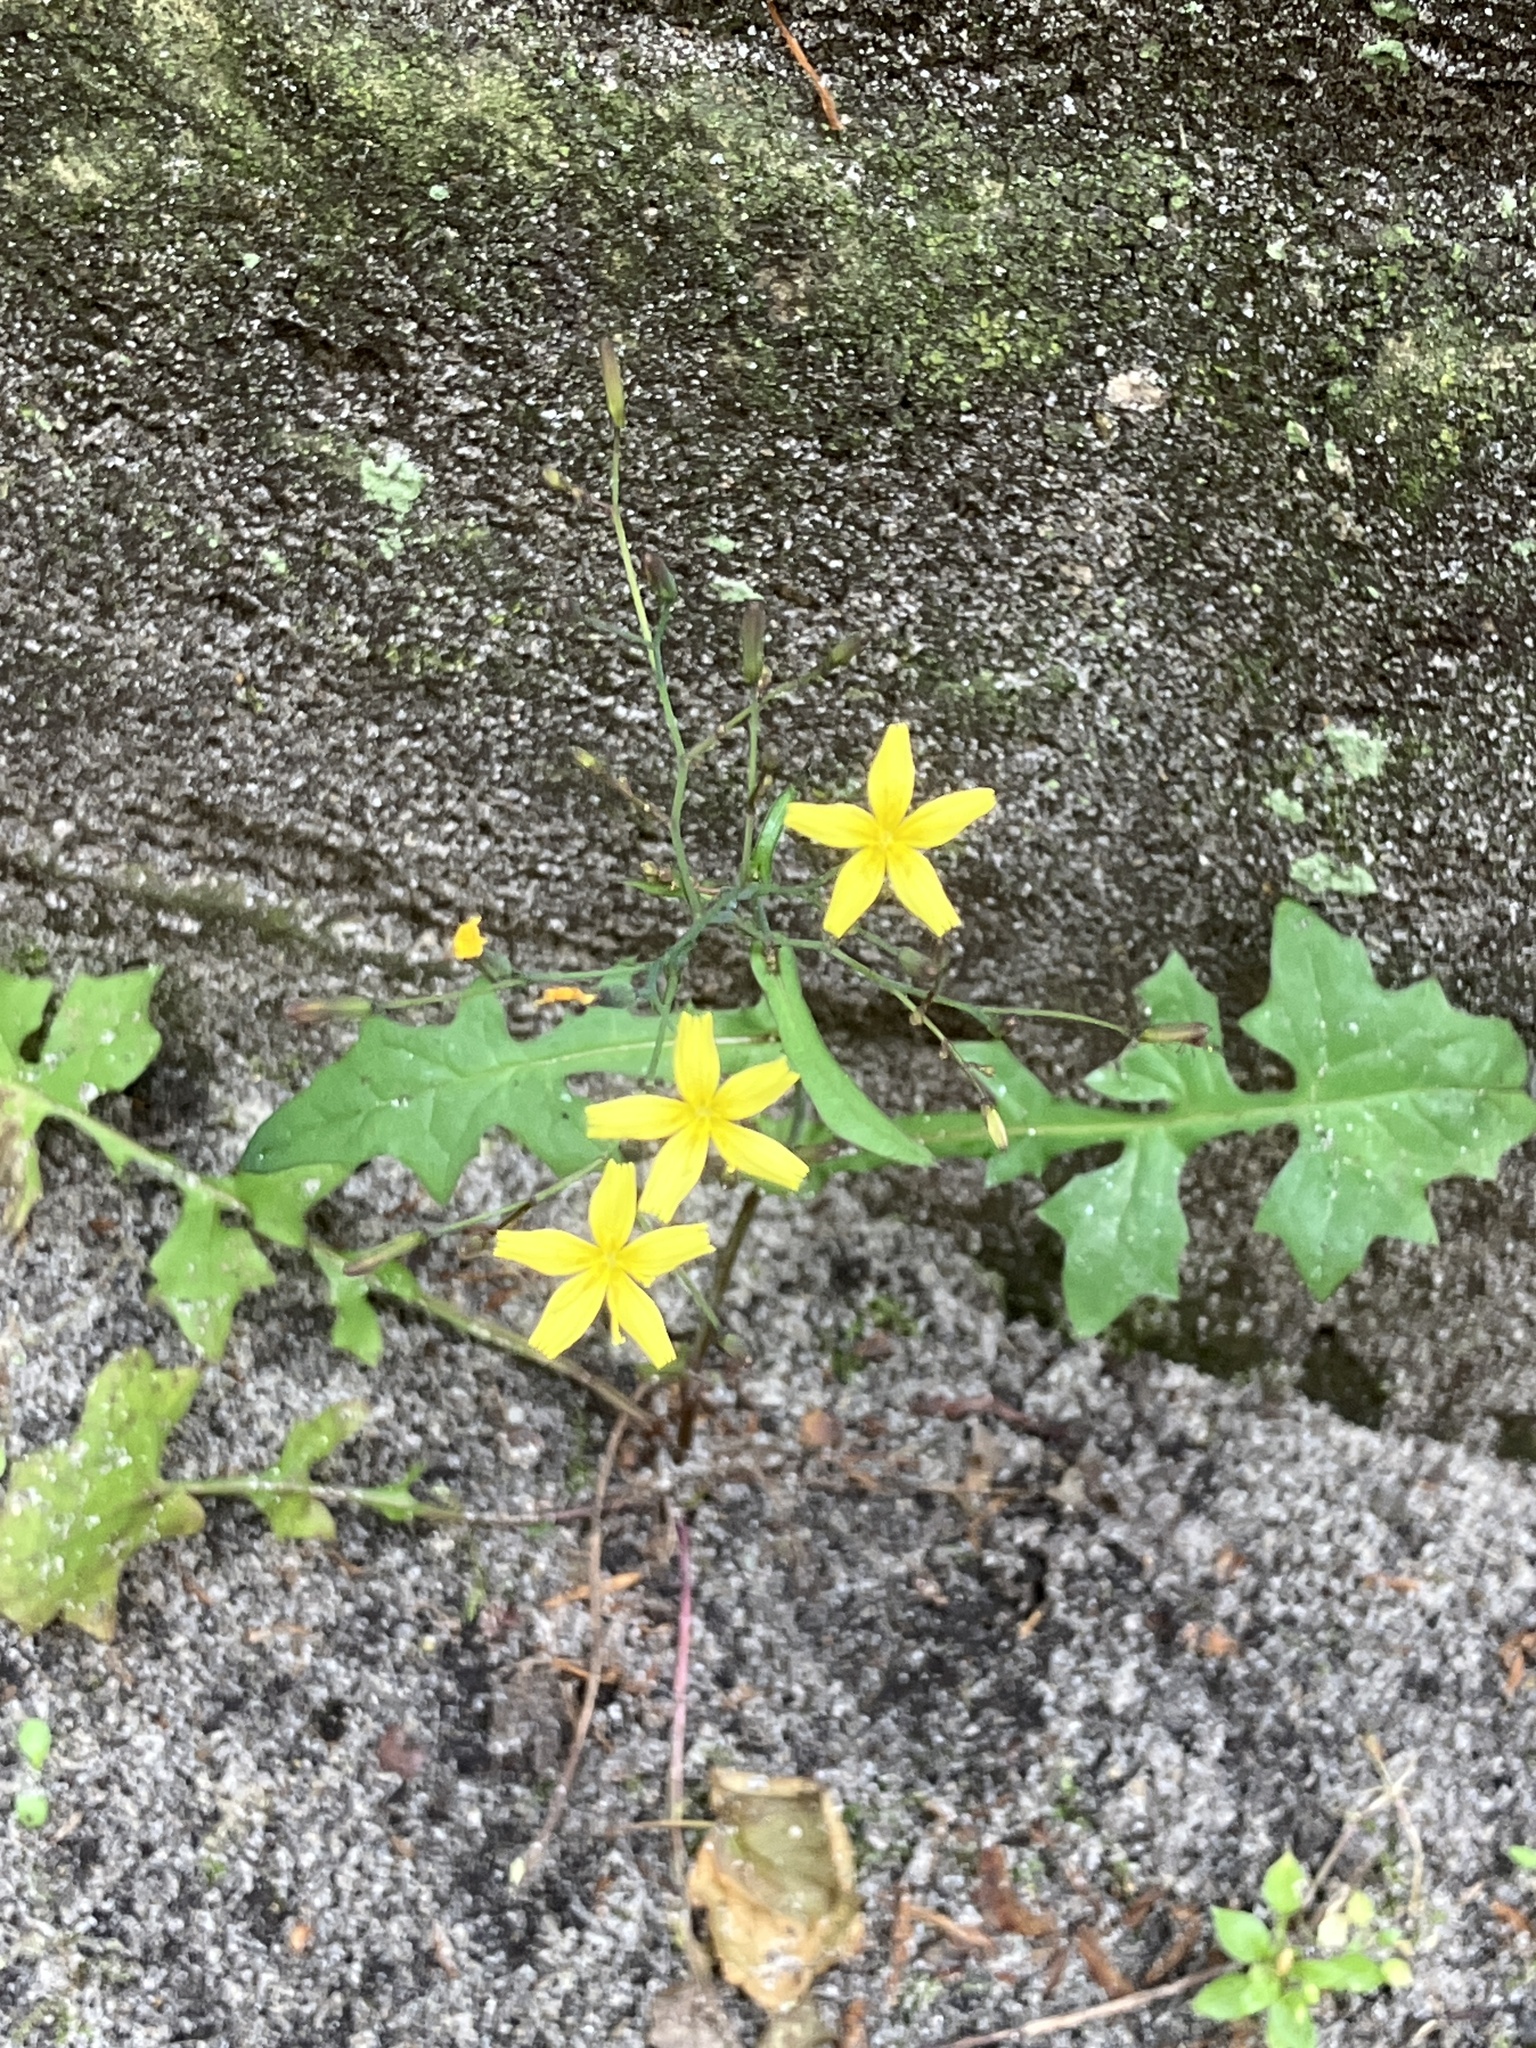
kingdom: Plantae
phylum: Tracheophyta
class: Magnoliopsida
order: Asterales
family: Asteraceae
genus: Mycelis
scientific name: Mycelis muralis
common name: Wall lettuce
